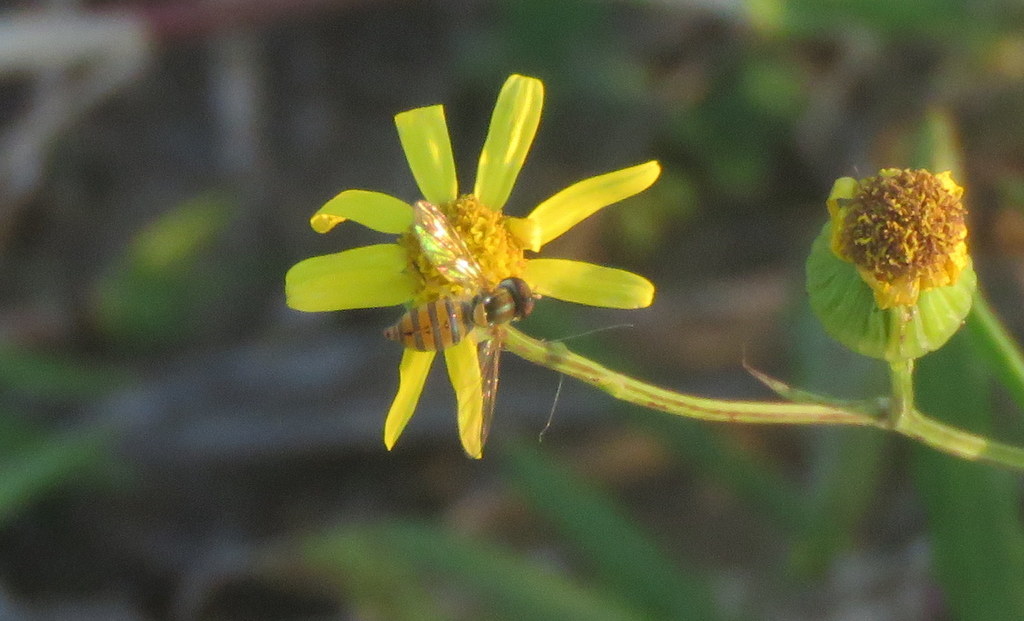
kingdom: Animalia
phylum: Arthropoda
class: Insecta
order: Diptera
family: Syrphidae
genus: Toxomerus
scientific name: Toxomerus
